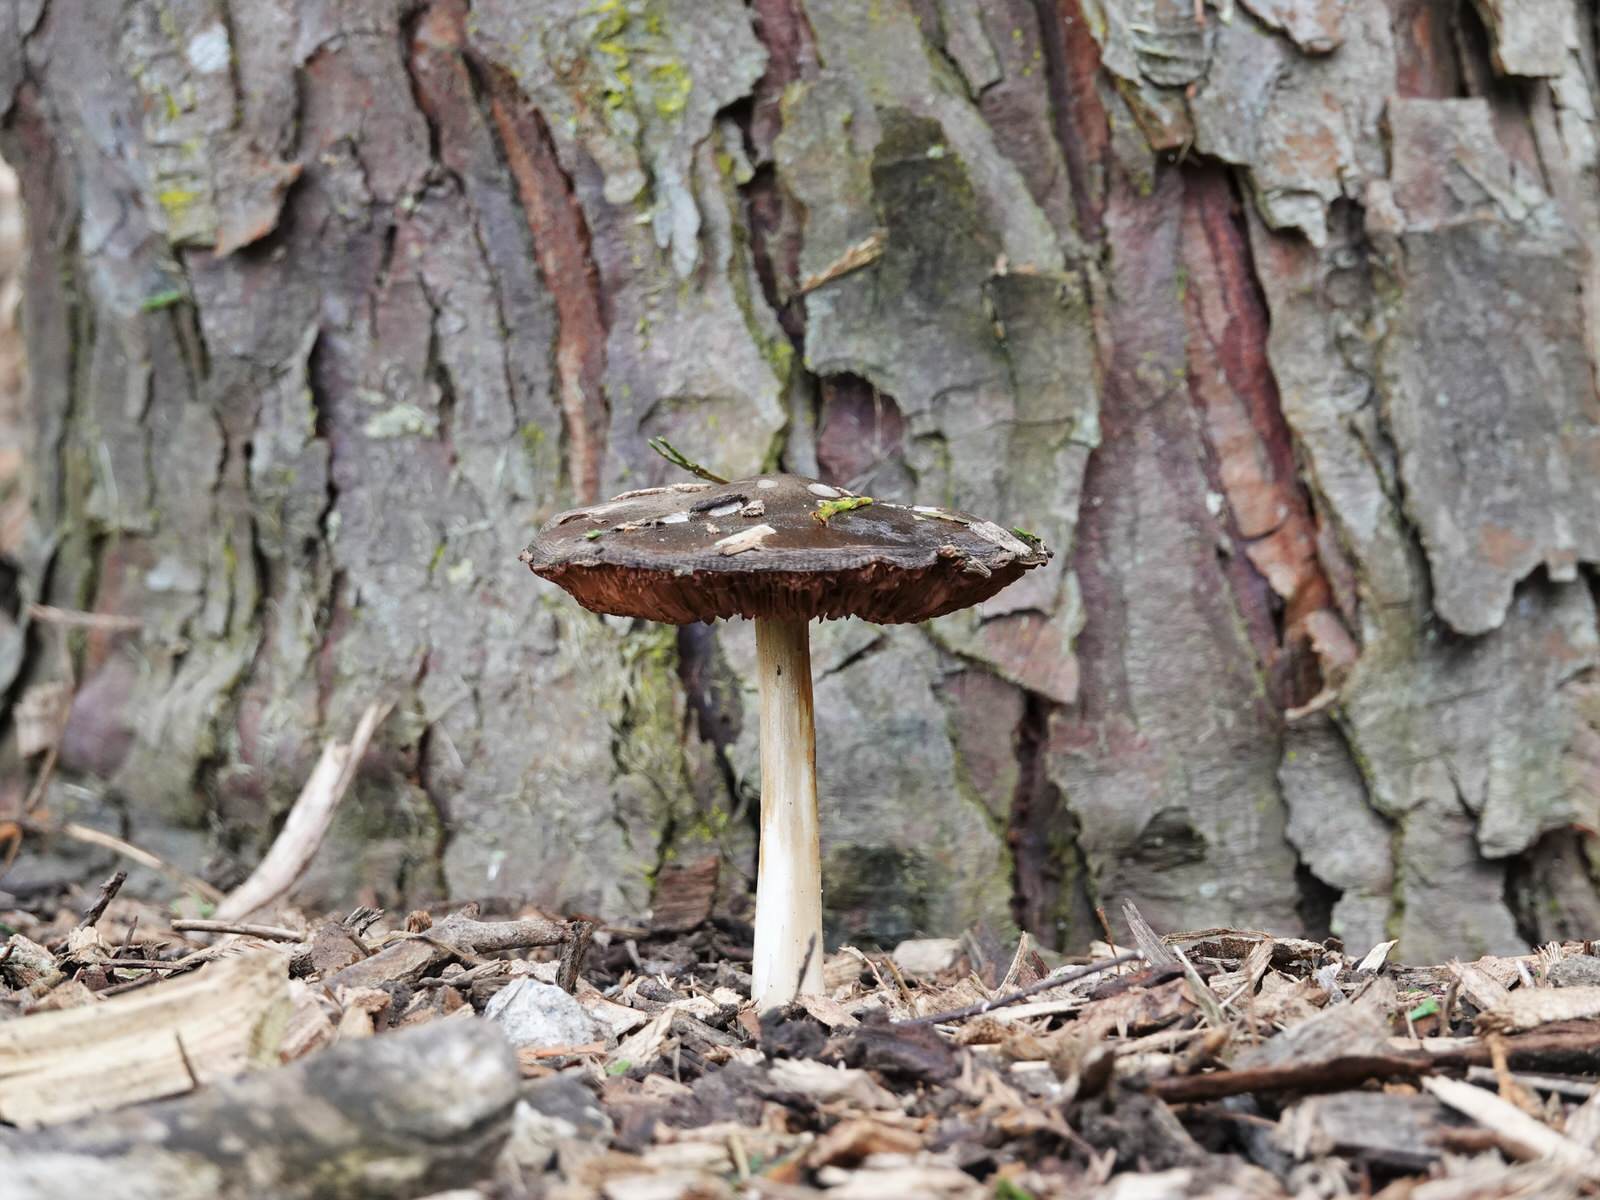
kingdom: Fungi
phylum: Basidiomycota
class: Agaricomycetes
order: Agaricales
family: Pluteaceae
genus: Volvopluteus
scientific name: Volvopluteus gloiocephalus
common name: Stubble rosegill
